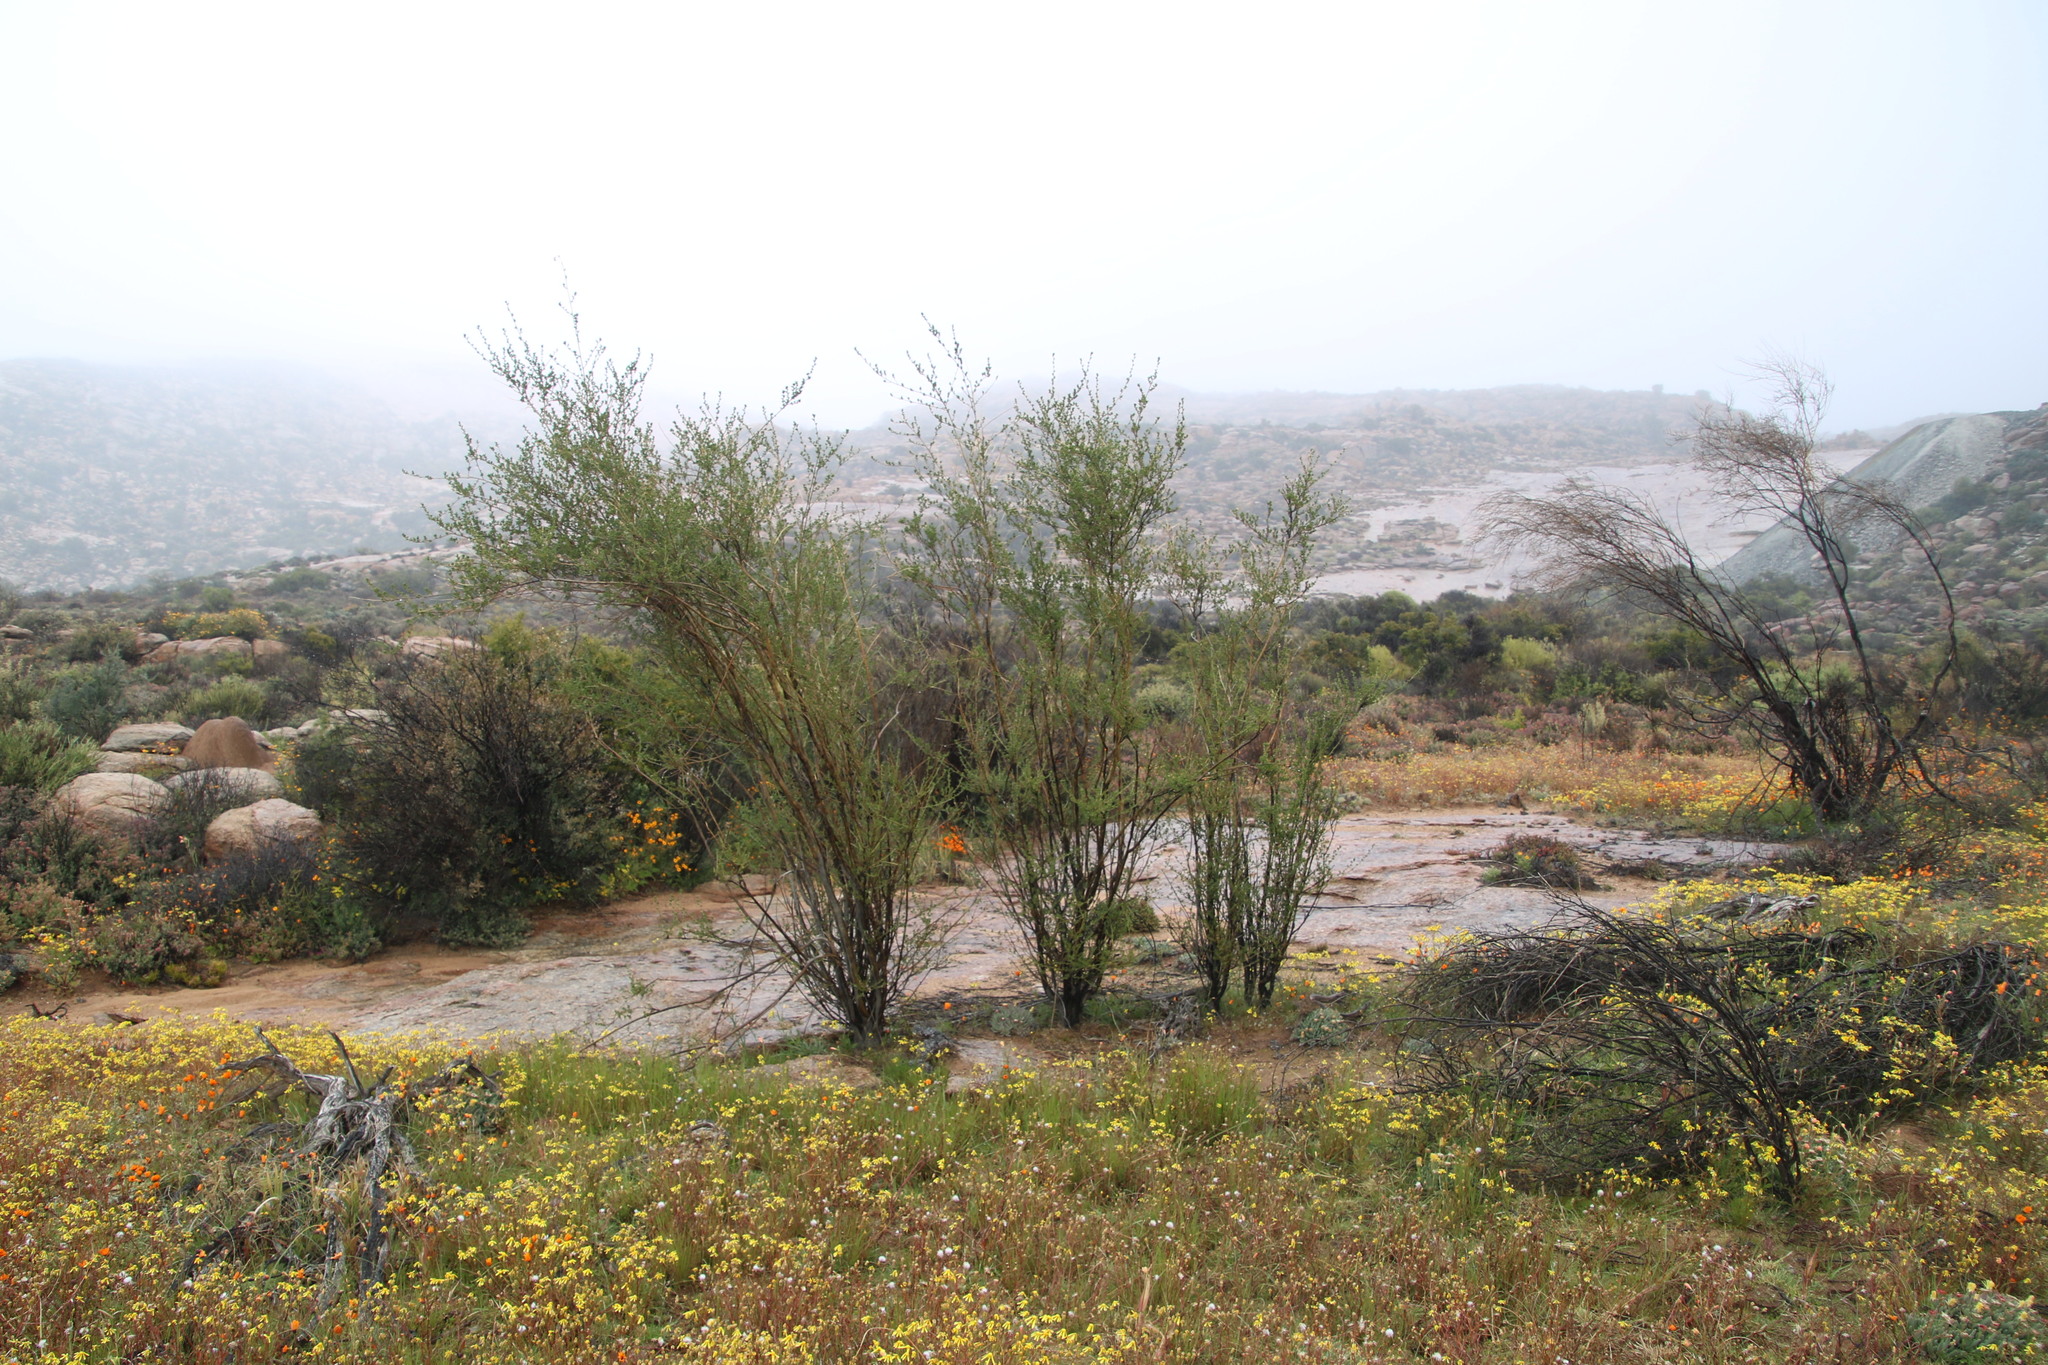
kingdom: Plantae
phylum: Tracheophyta
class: Magnoliopsida
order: Fabales
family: Fabaceae
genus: Psoralea
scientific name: Psoralea arborescens
